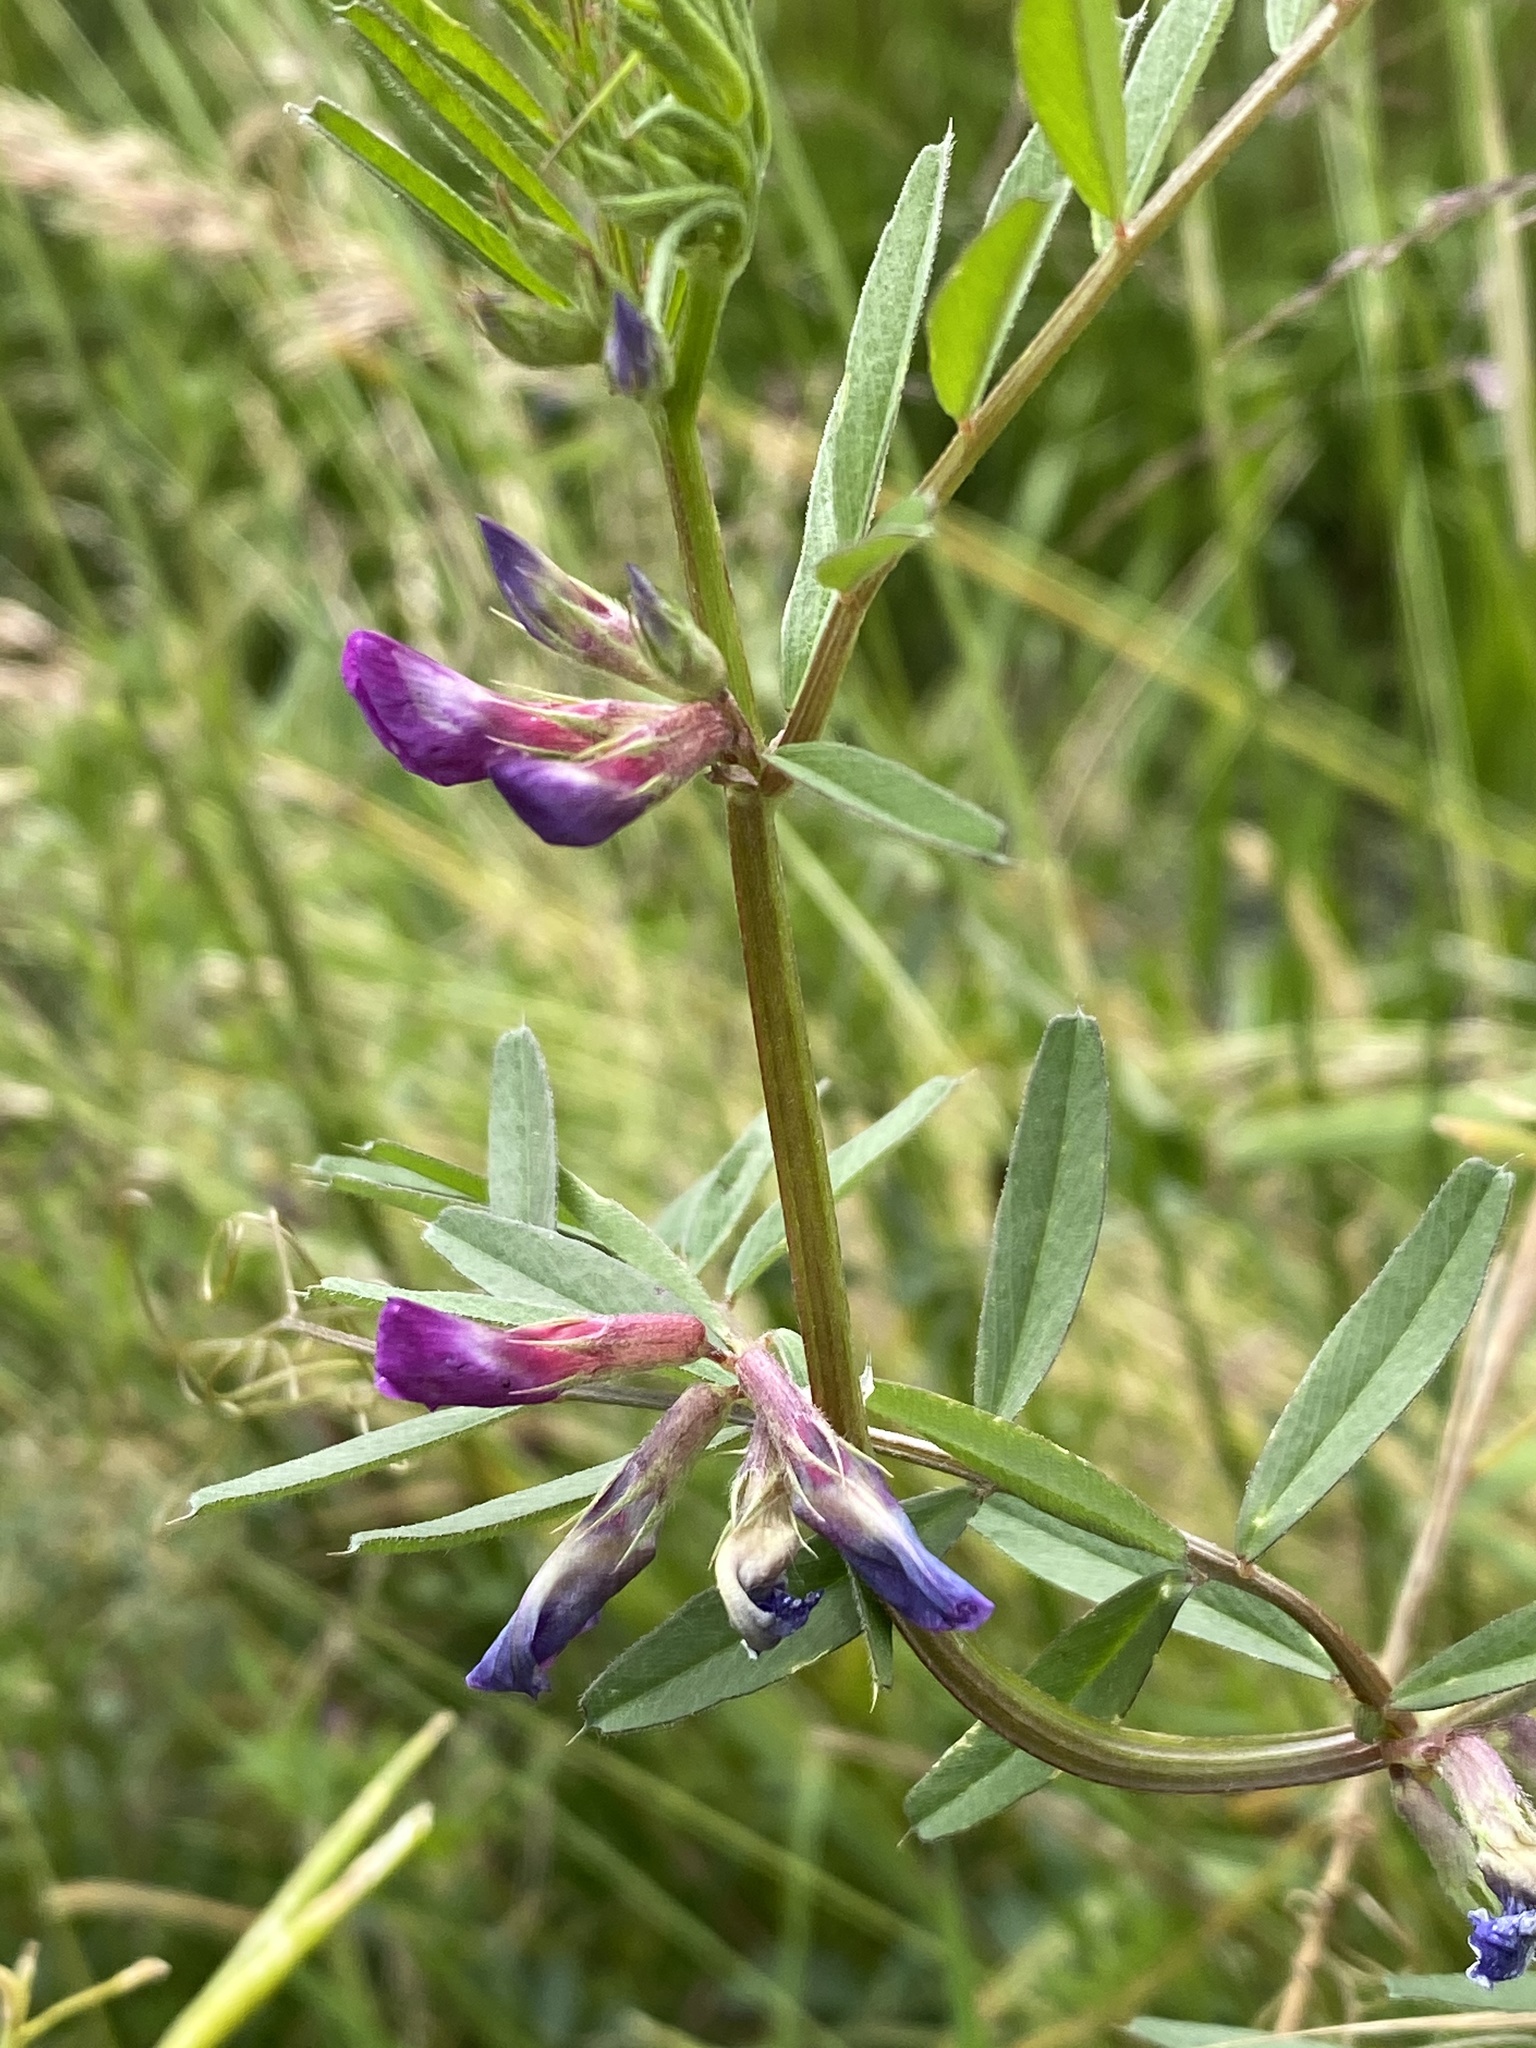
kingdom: Plantae
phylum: Tracheophyta
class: Magnoliopsida
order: Fabales
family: Fabaceae
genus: Vicia
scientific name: Vicia sativa
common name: Garden vetch
